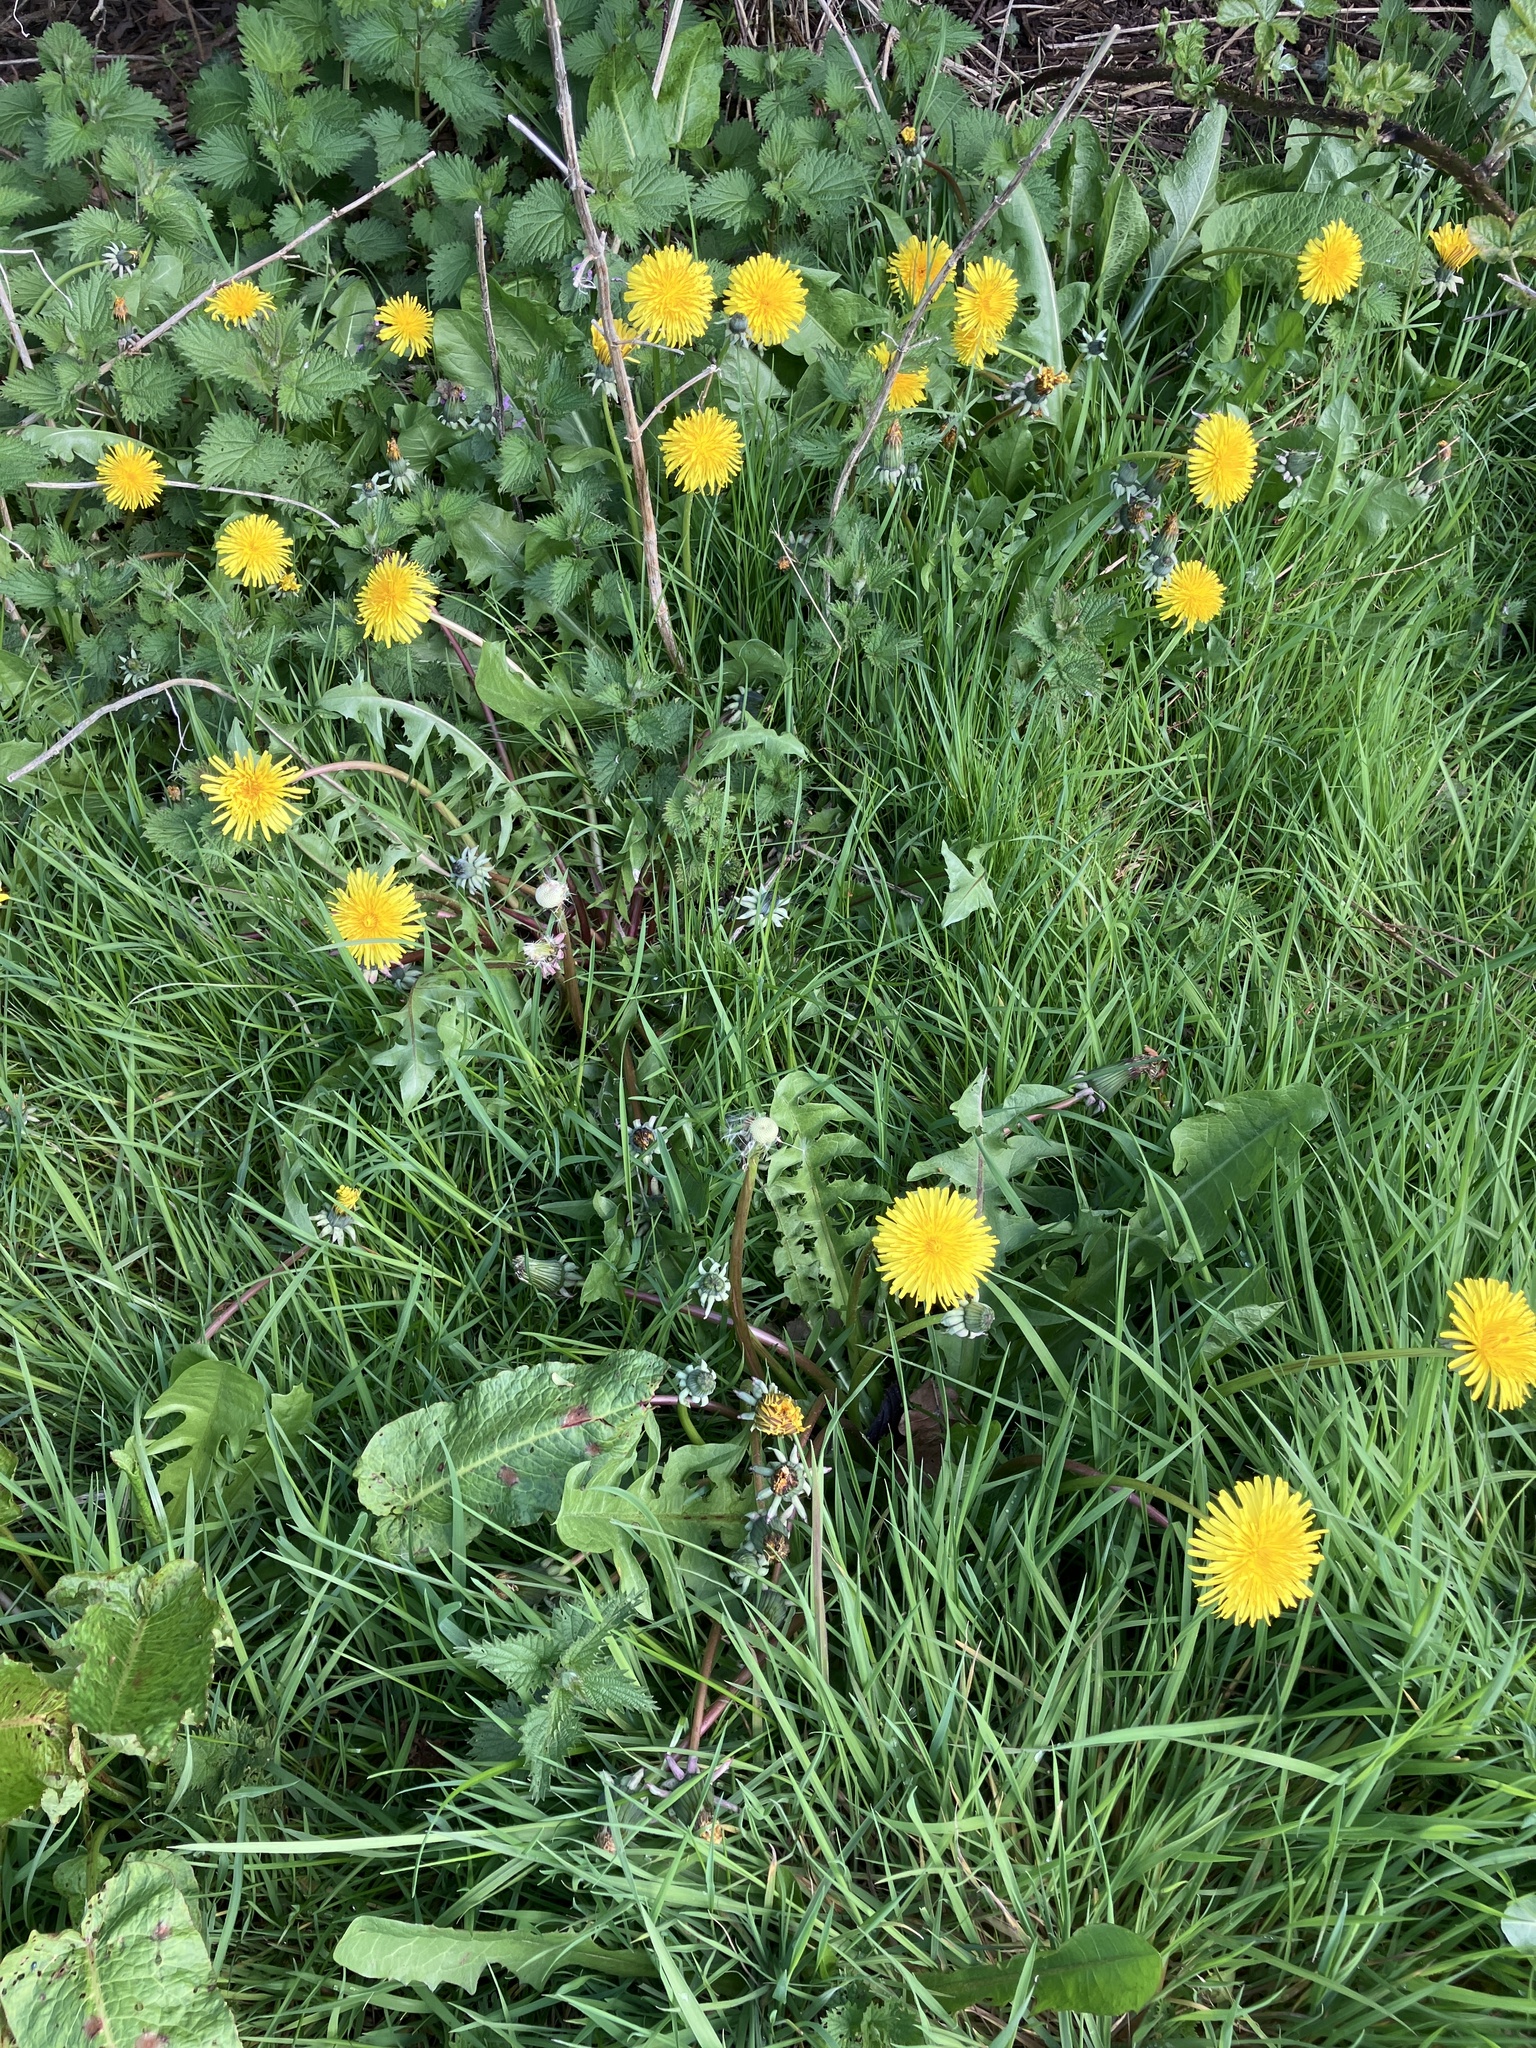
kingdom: Plantae
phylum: Tracheophyta
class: Magnoliopsida
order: Asterales
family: Asteraceae
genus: Taraxacum
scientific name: Taraxacum officinale
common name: Common dandelion
